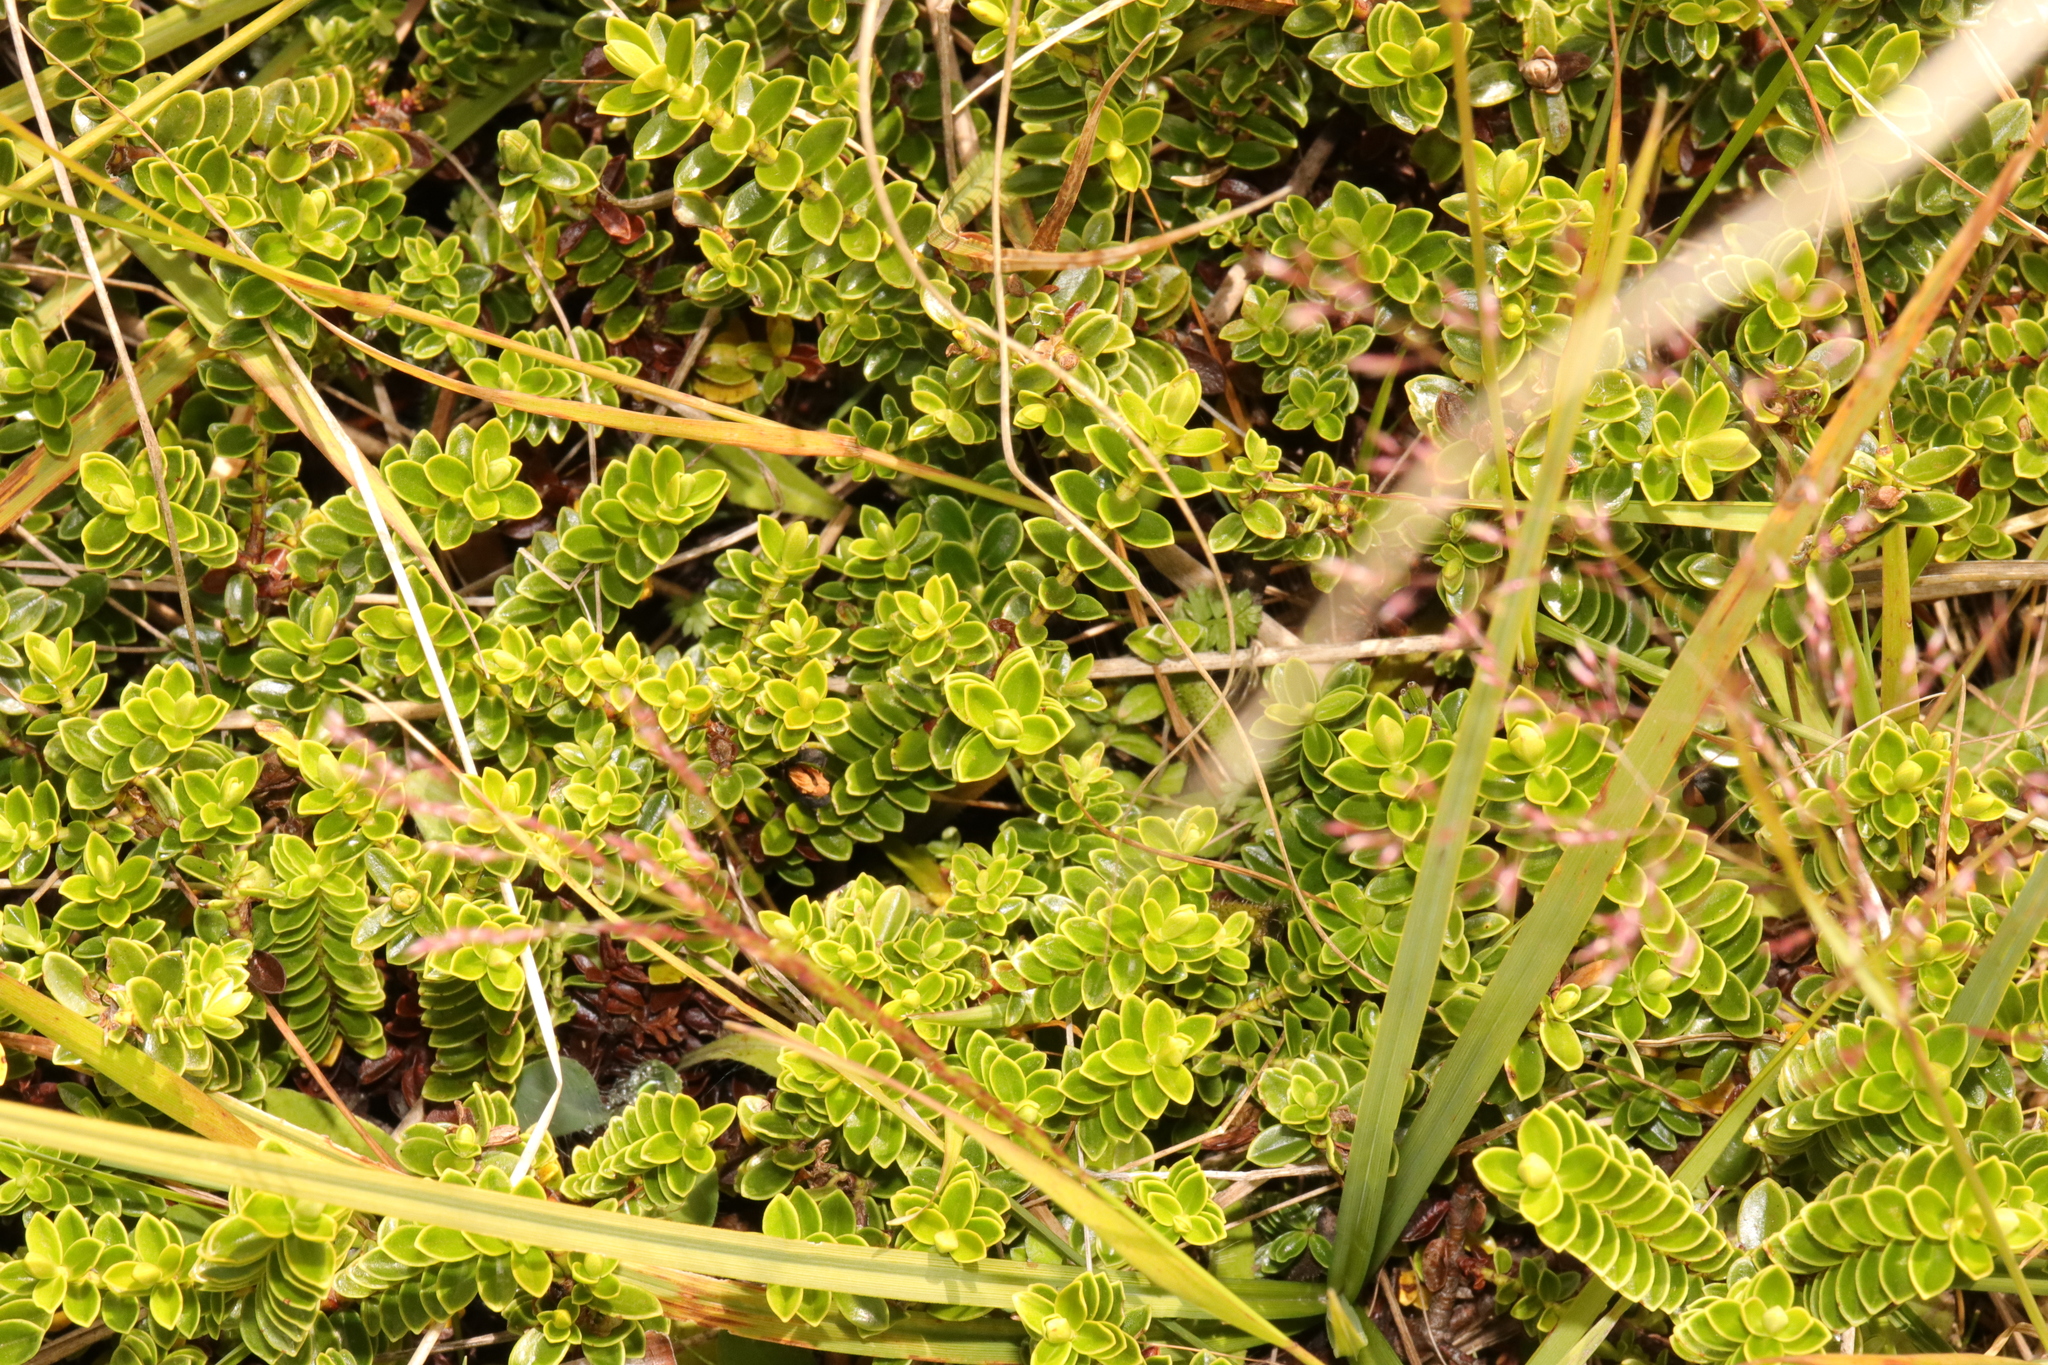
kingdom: Plantae
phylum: Tracheophyta
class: Magnoliopsida
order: Lamiales
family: Plantaginaceae
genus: Veronica
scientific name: Veronica odora
